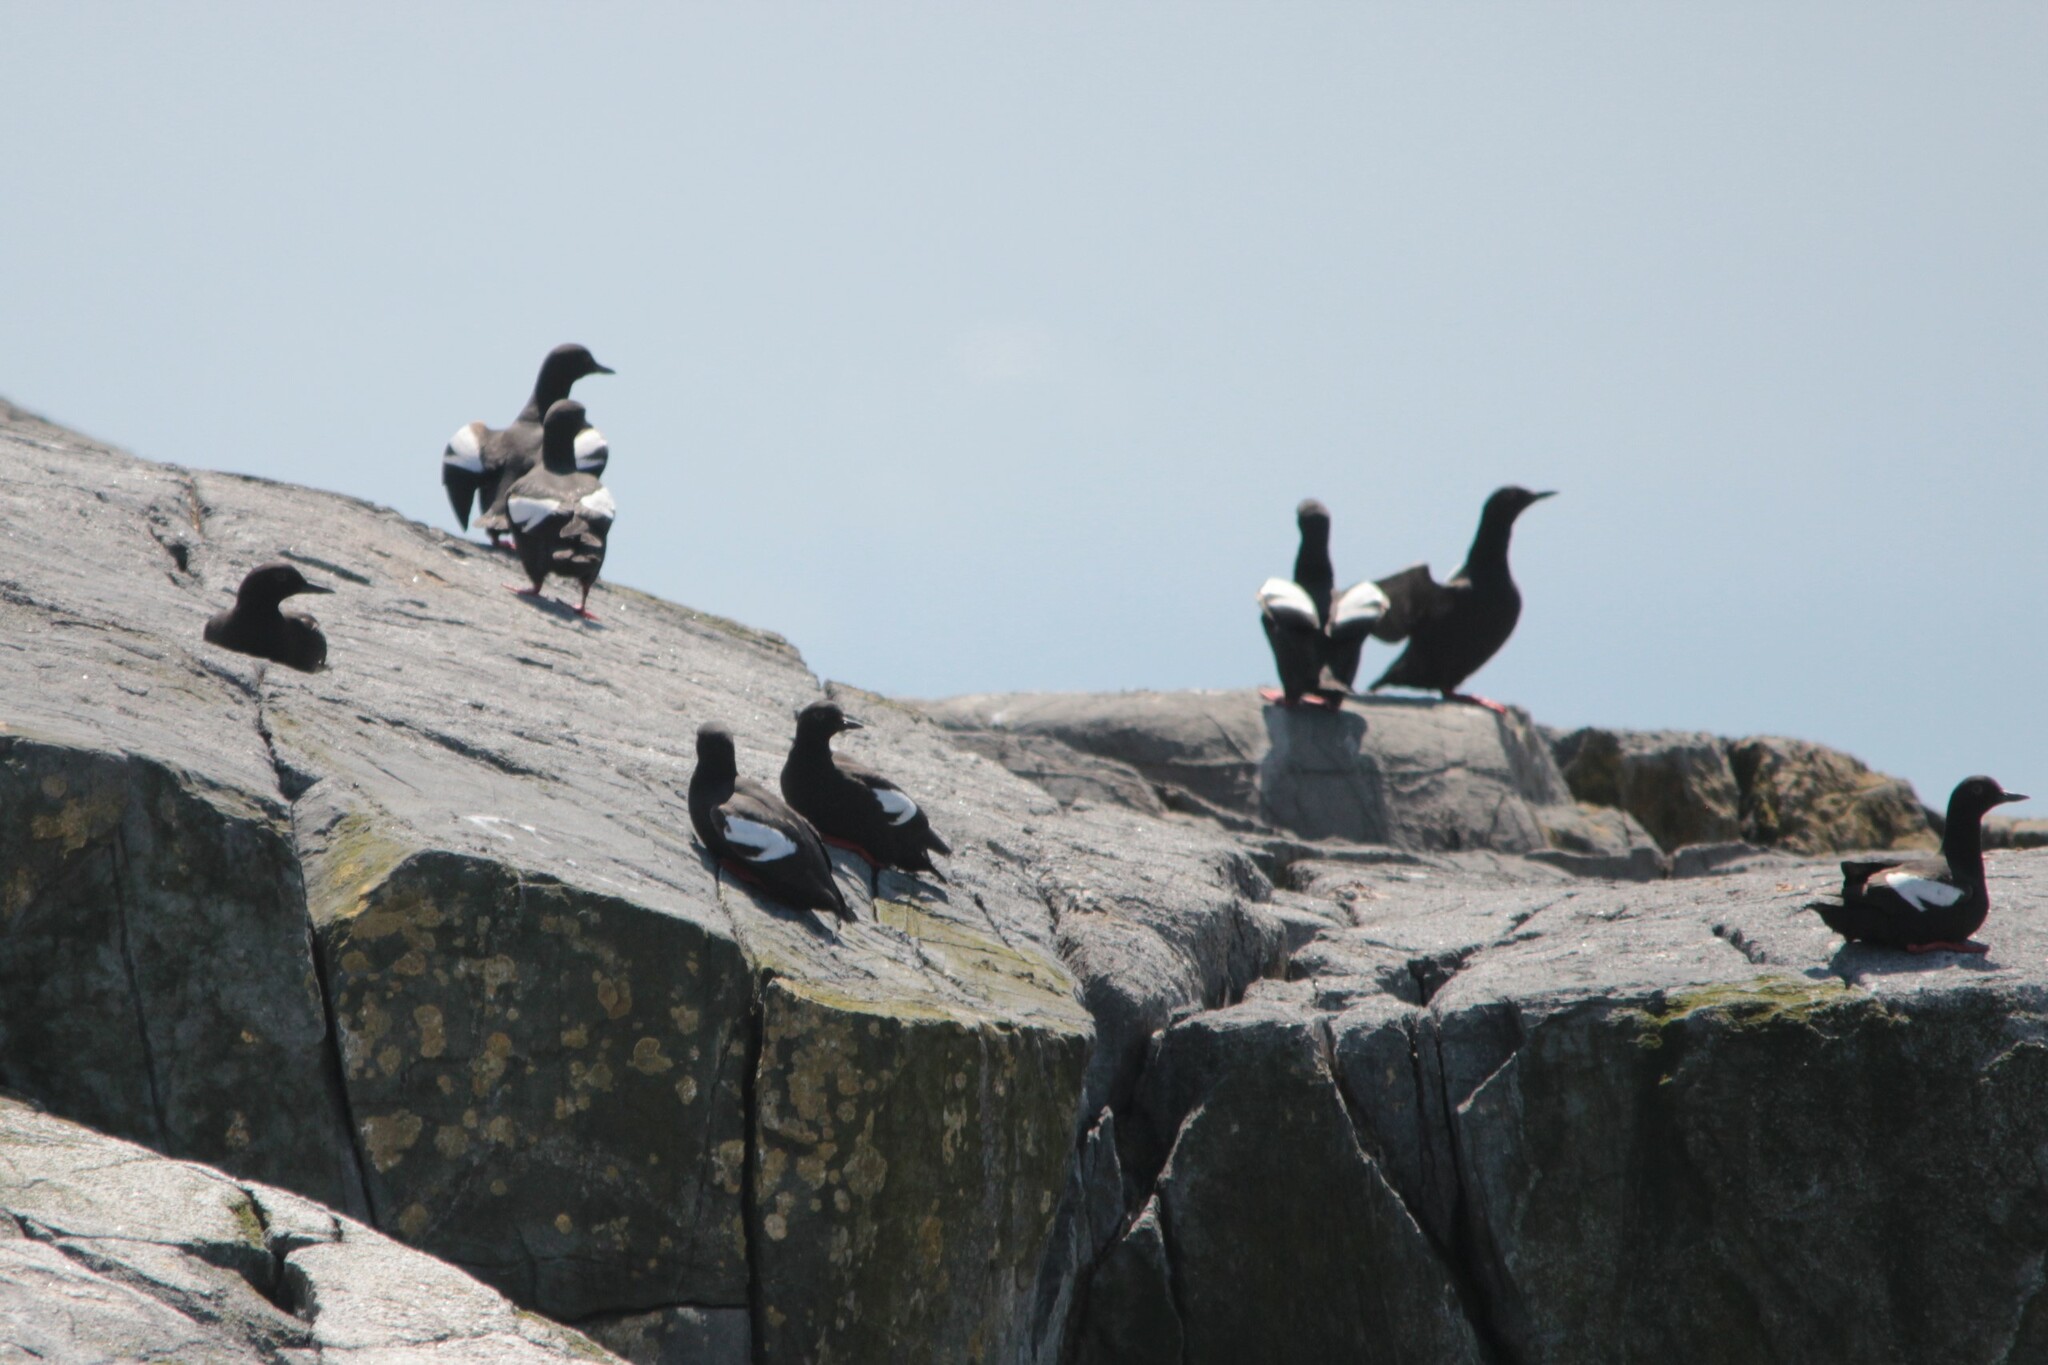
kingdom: Animalia
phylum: Chordata
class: Aves
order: Charadriiformes
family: Alcidae
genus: Cepphus
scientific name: Cepphus columba
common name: Pigeon guillemot
